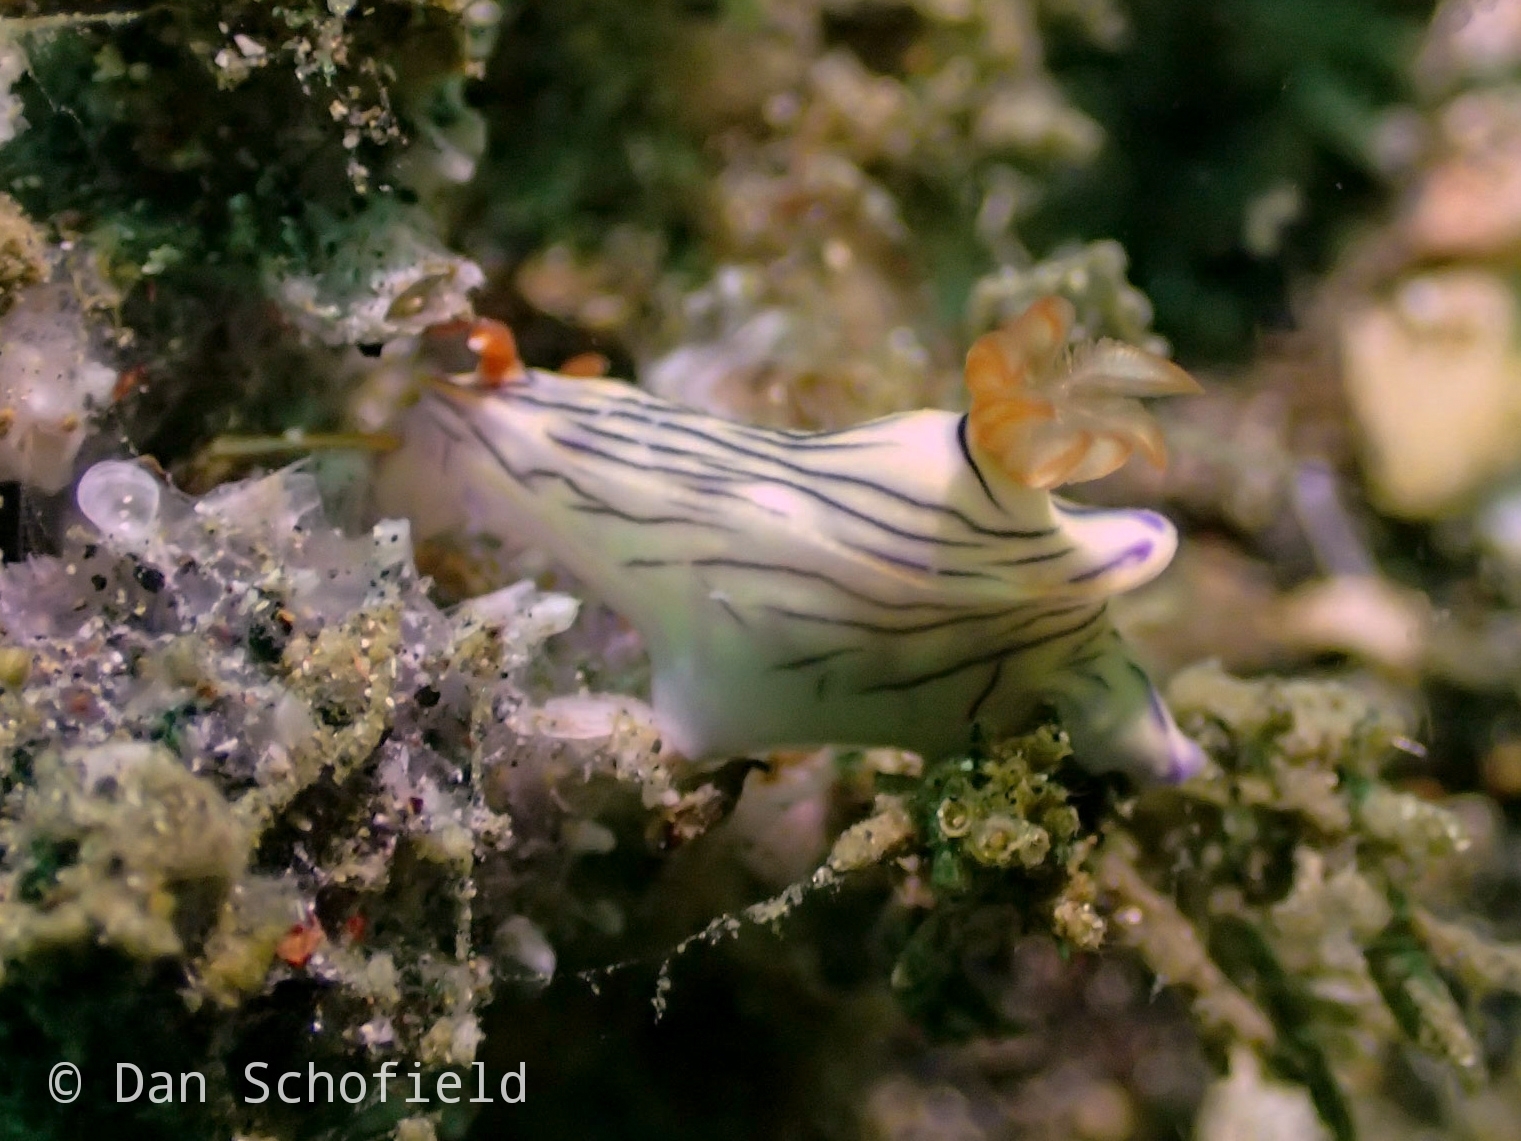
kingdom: Animalia
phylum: Mollusca
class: Gastropoda
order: Nudibranchia
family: Chromodorididae
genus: Hypselodoris
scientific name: Hypselodoris zephyra
